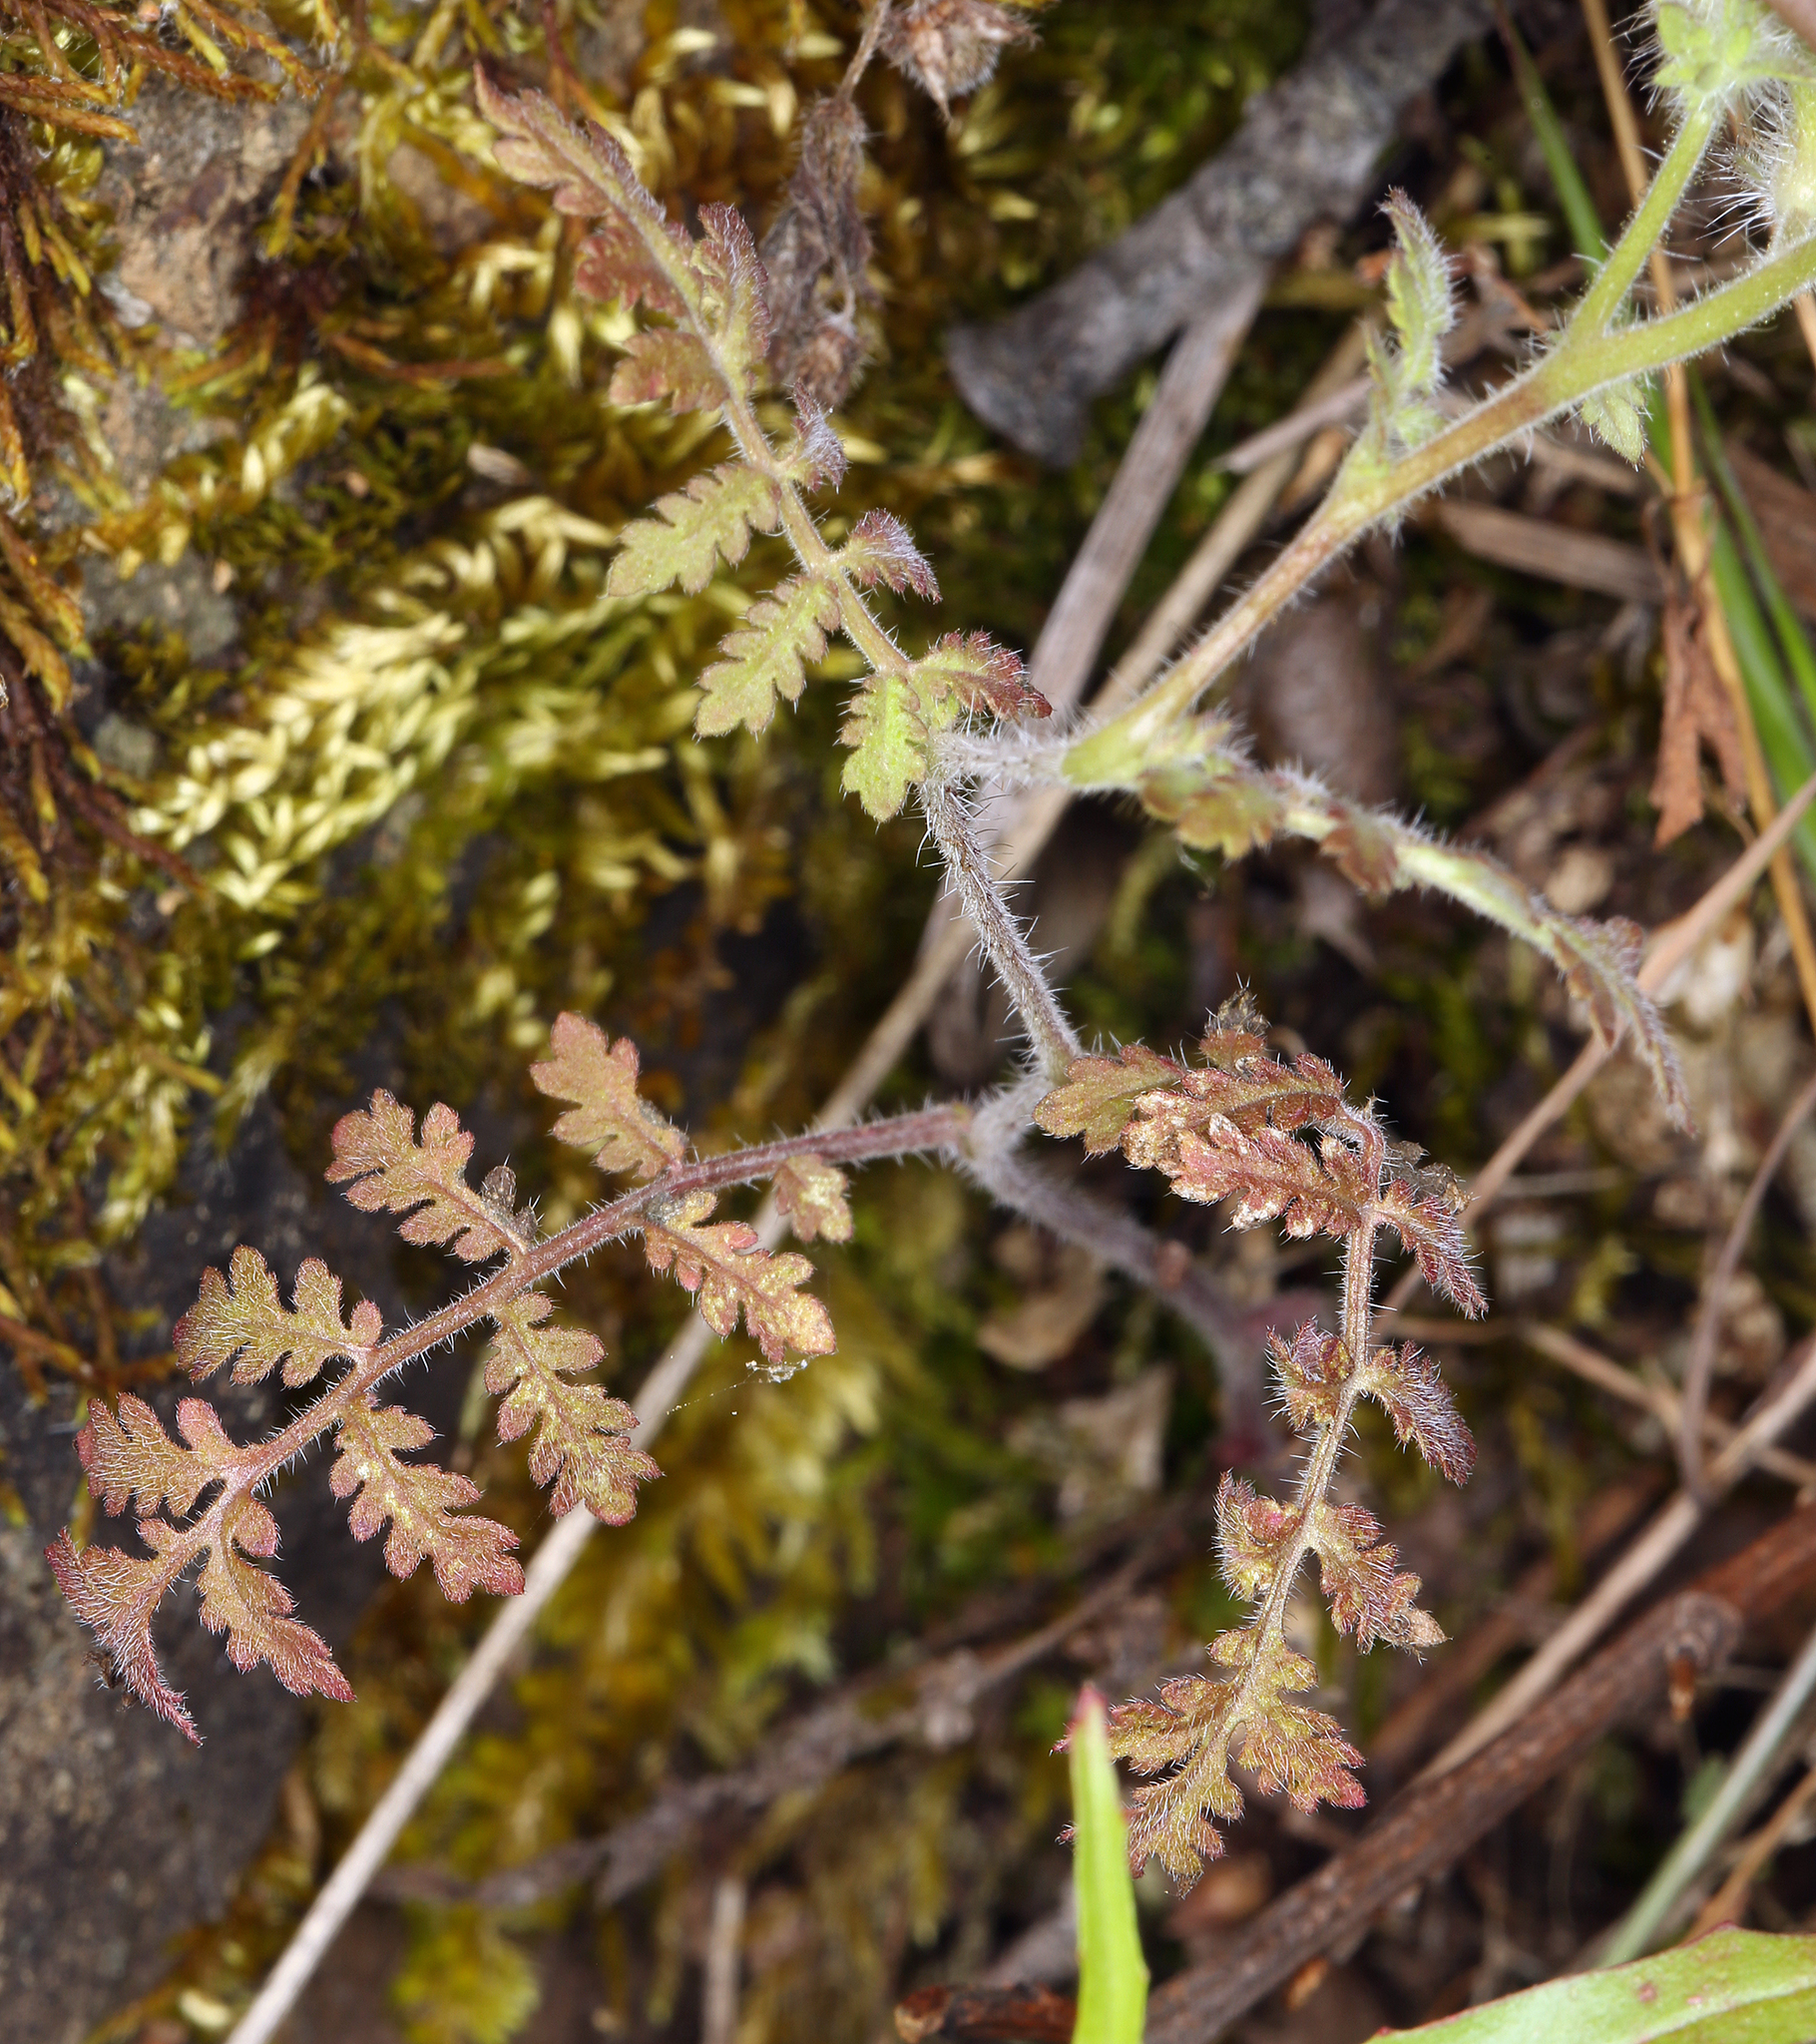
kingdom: Plantae
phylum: Tracheophyta
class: Magnoliopsida
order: Boraginales
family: Hydrophyllaceae
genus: Phacelia
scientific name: Phacelia distans
